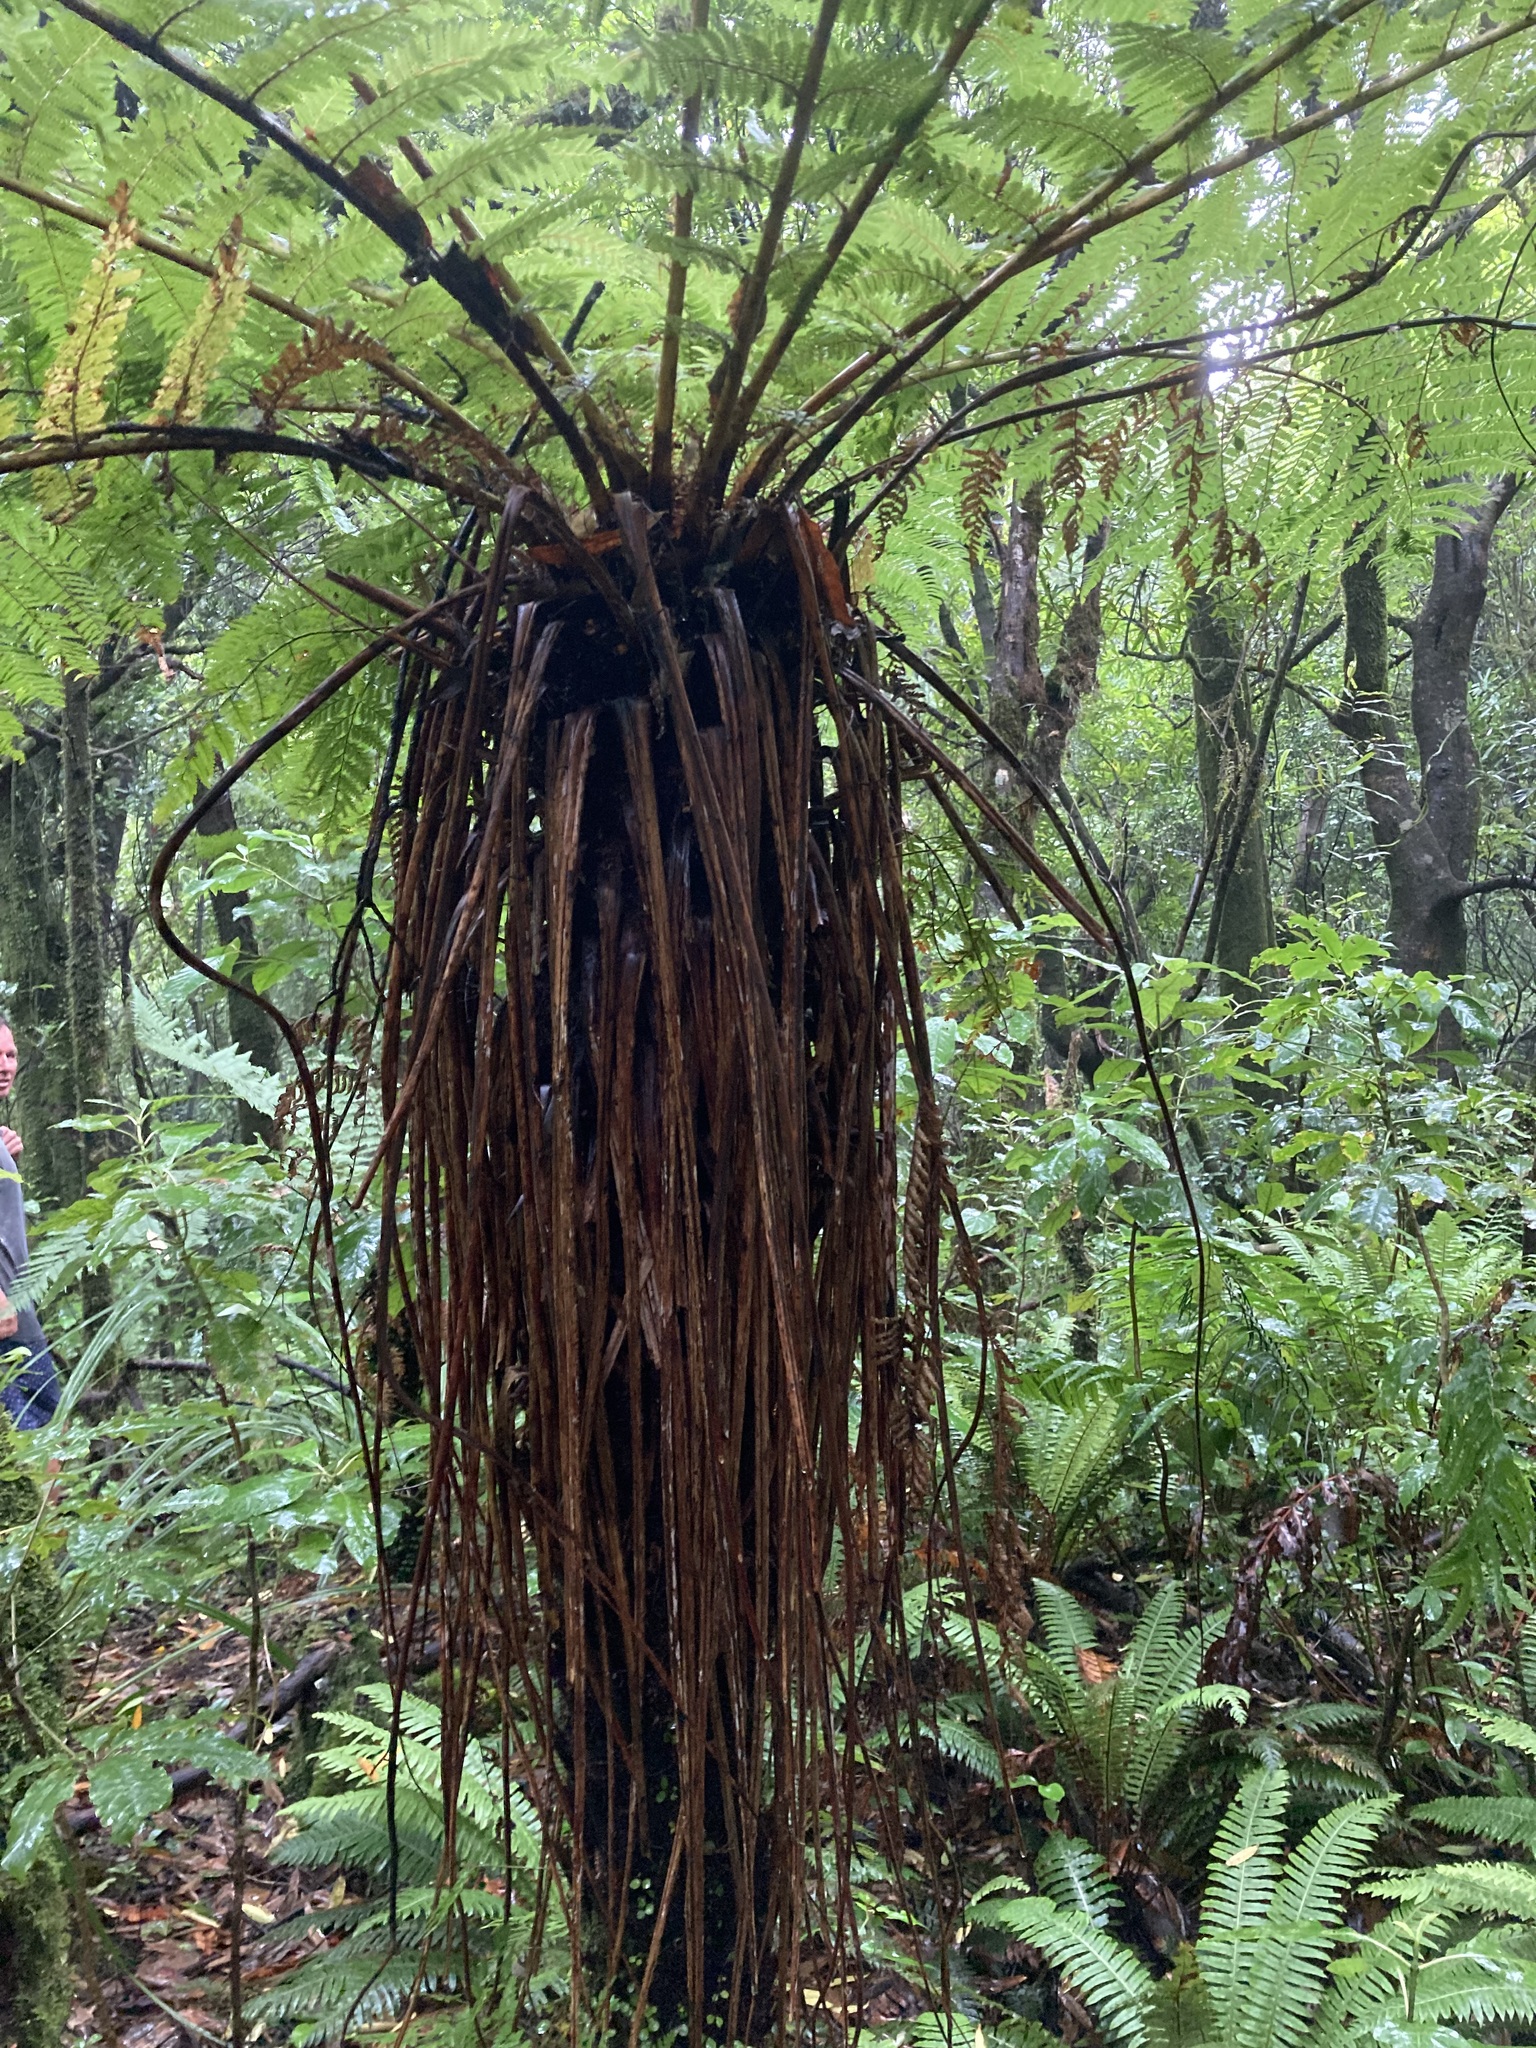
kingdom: Plantae
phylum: Tracheophyta
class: Polypodiopsida
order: Cyatheales
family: Cyatheaceae
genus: Alsophila
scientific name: Alsophila smithii
